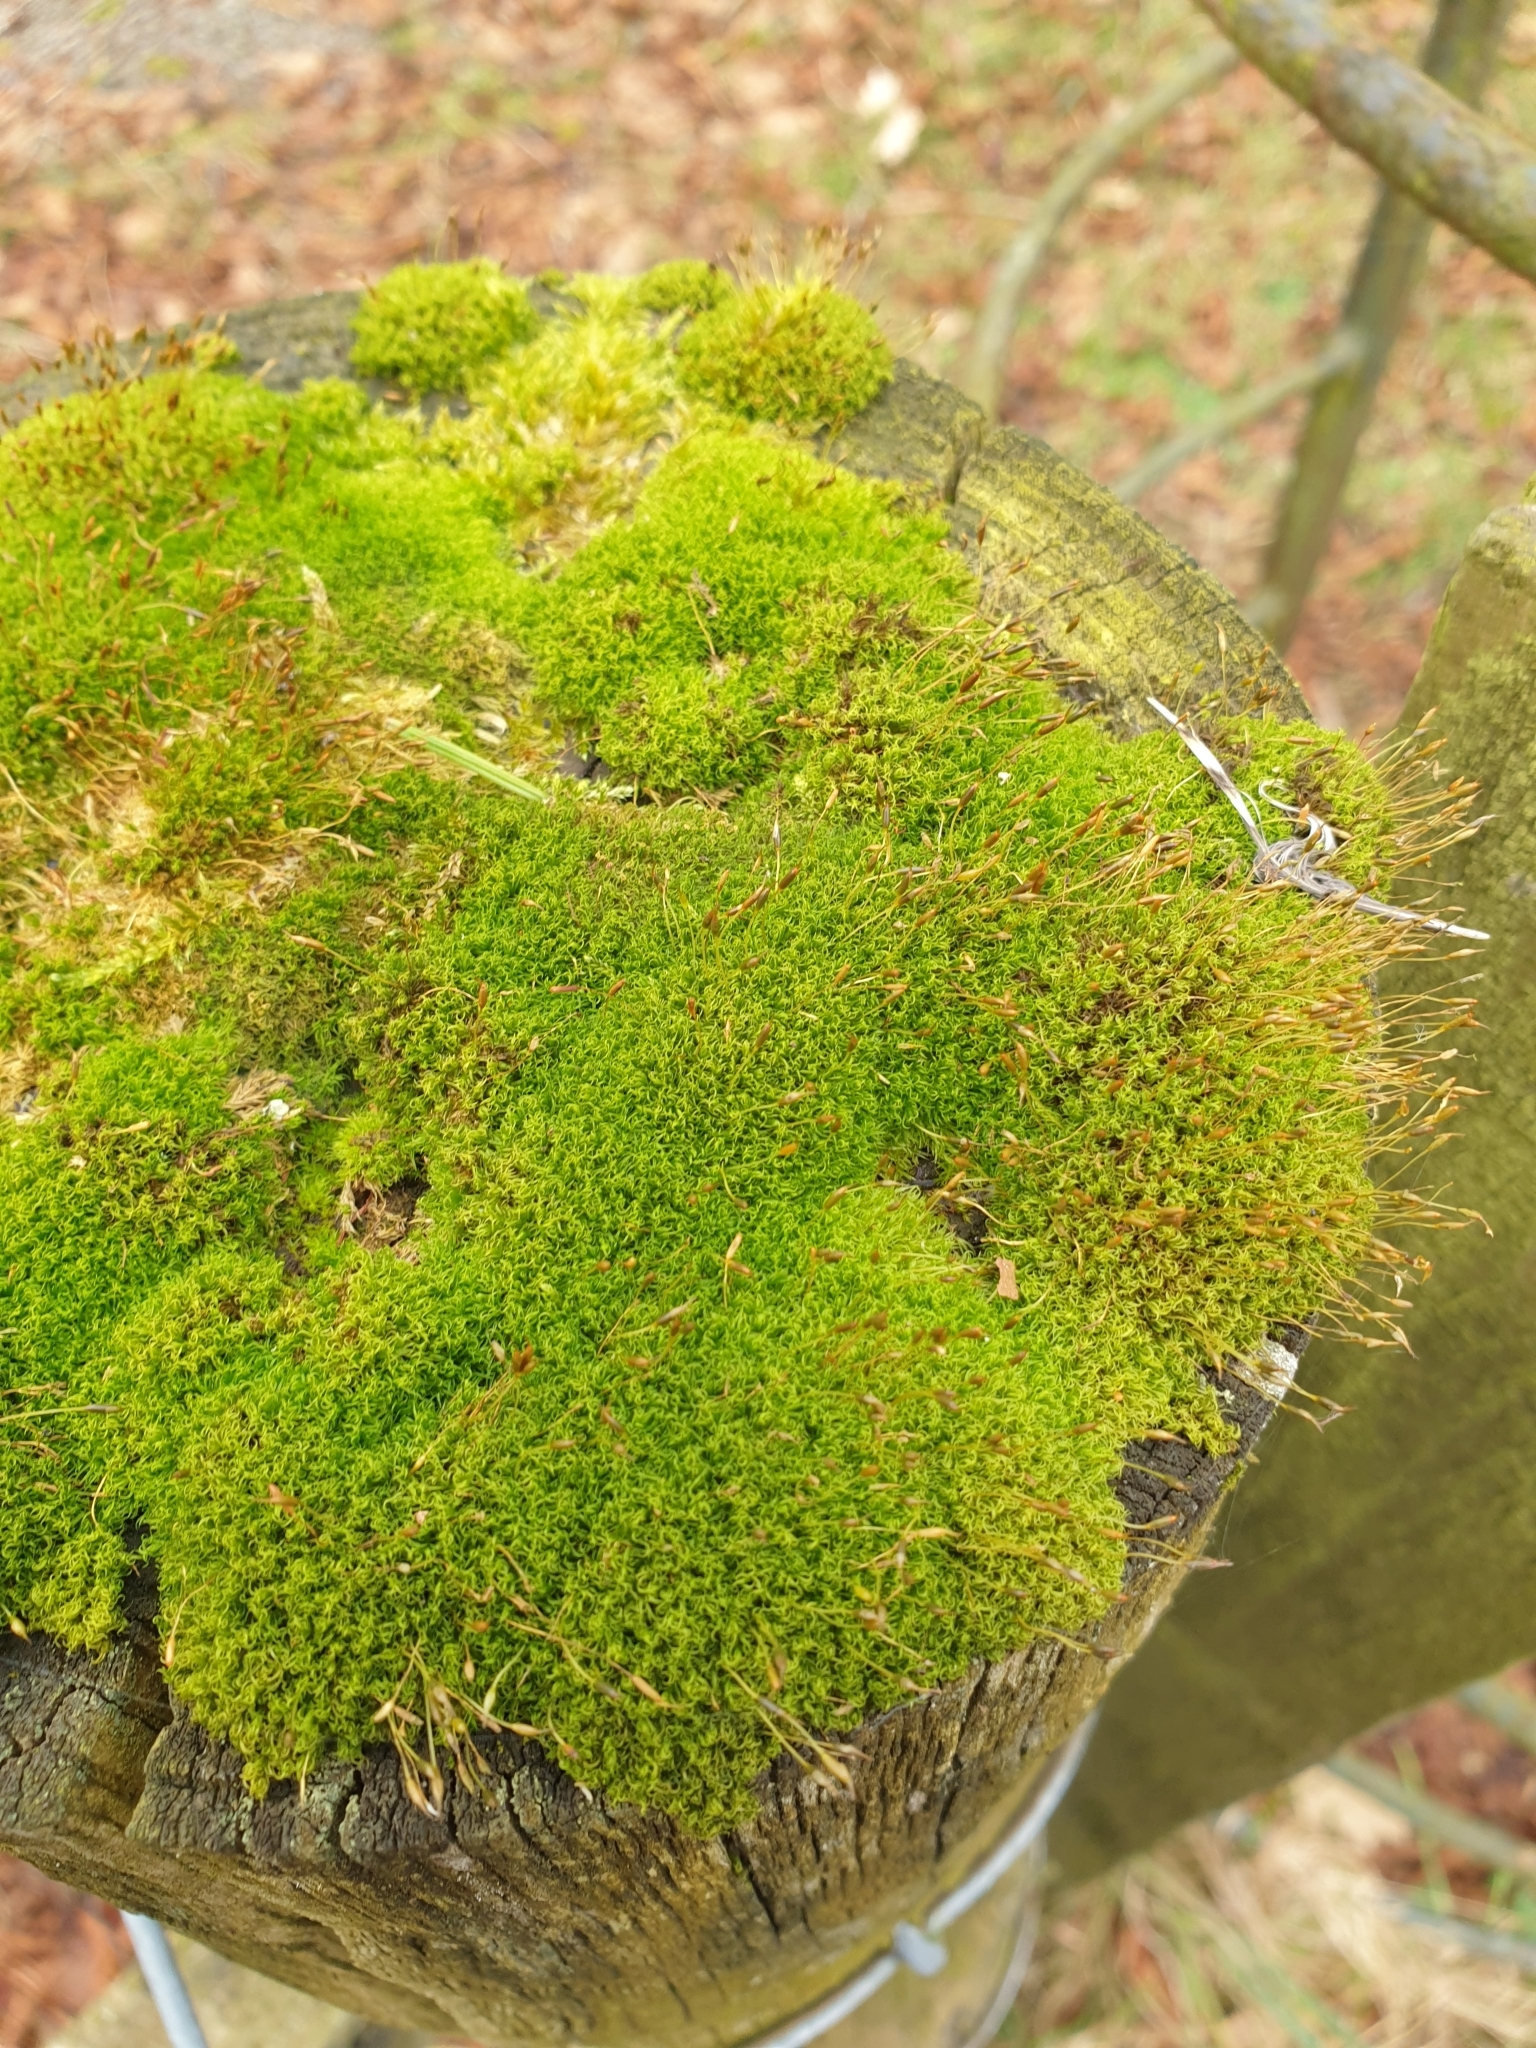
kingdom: Plantae
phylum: Bryophyta
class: Bryopsida
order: Dicranales
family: Rhabdoweisiaceae
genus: Dicranoweisia
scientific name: Dicranoweisia cirrata
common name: Common pincushion
